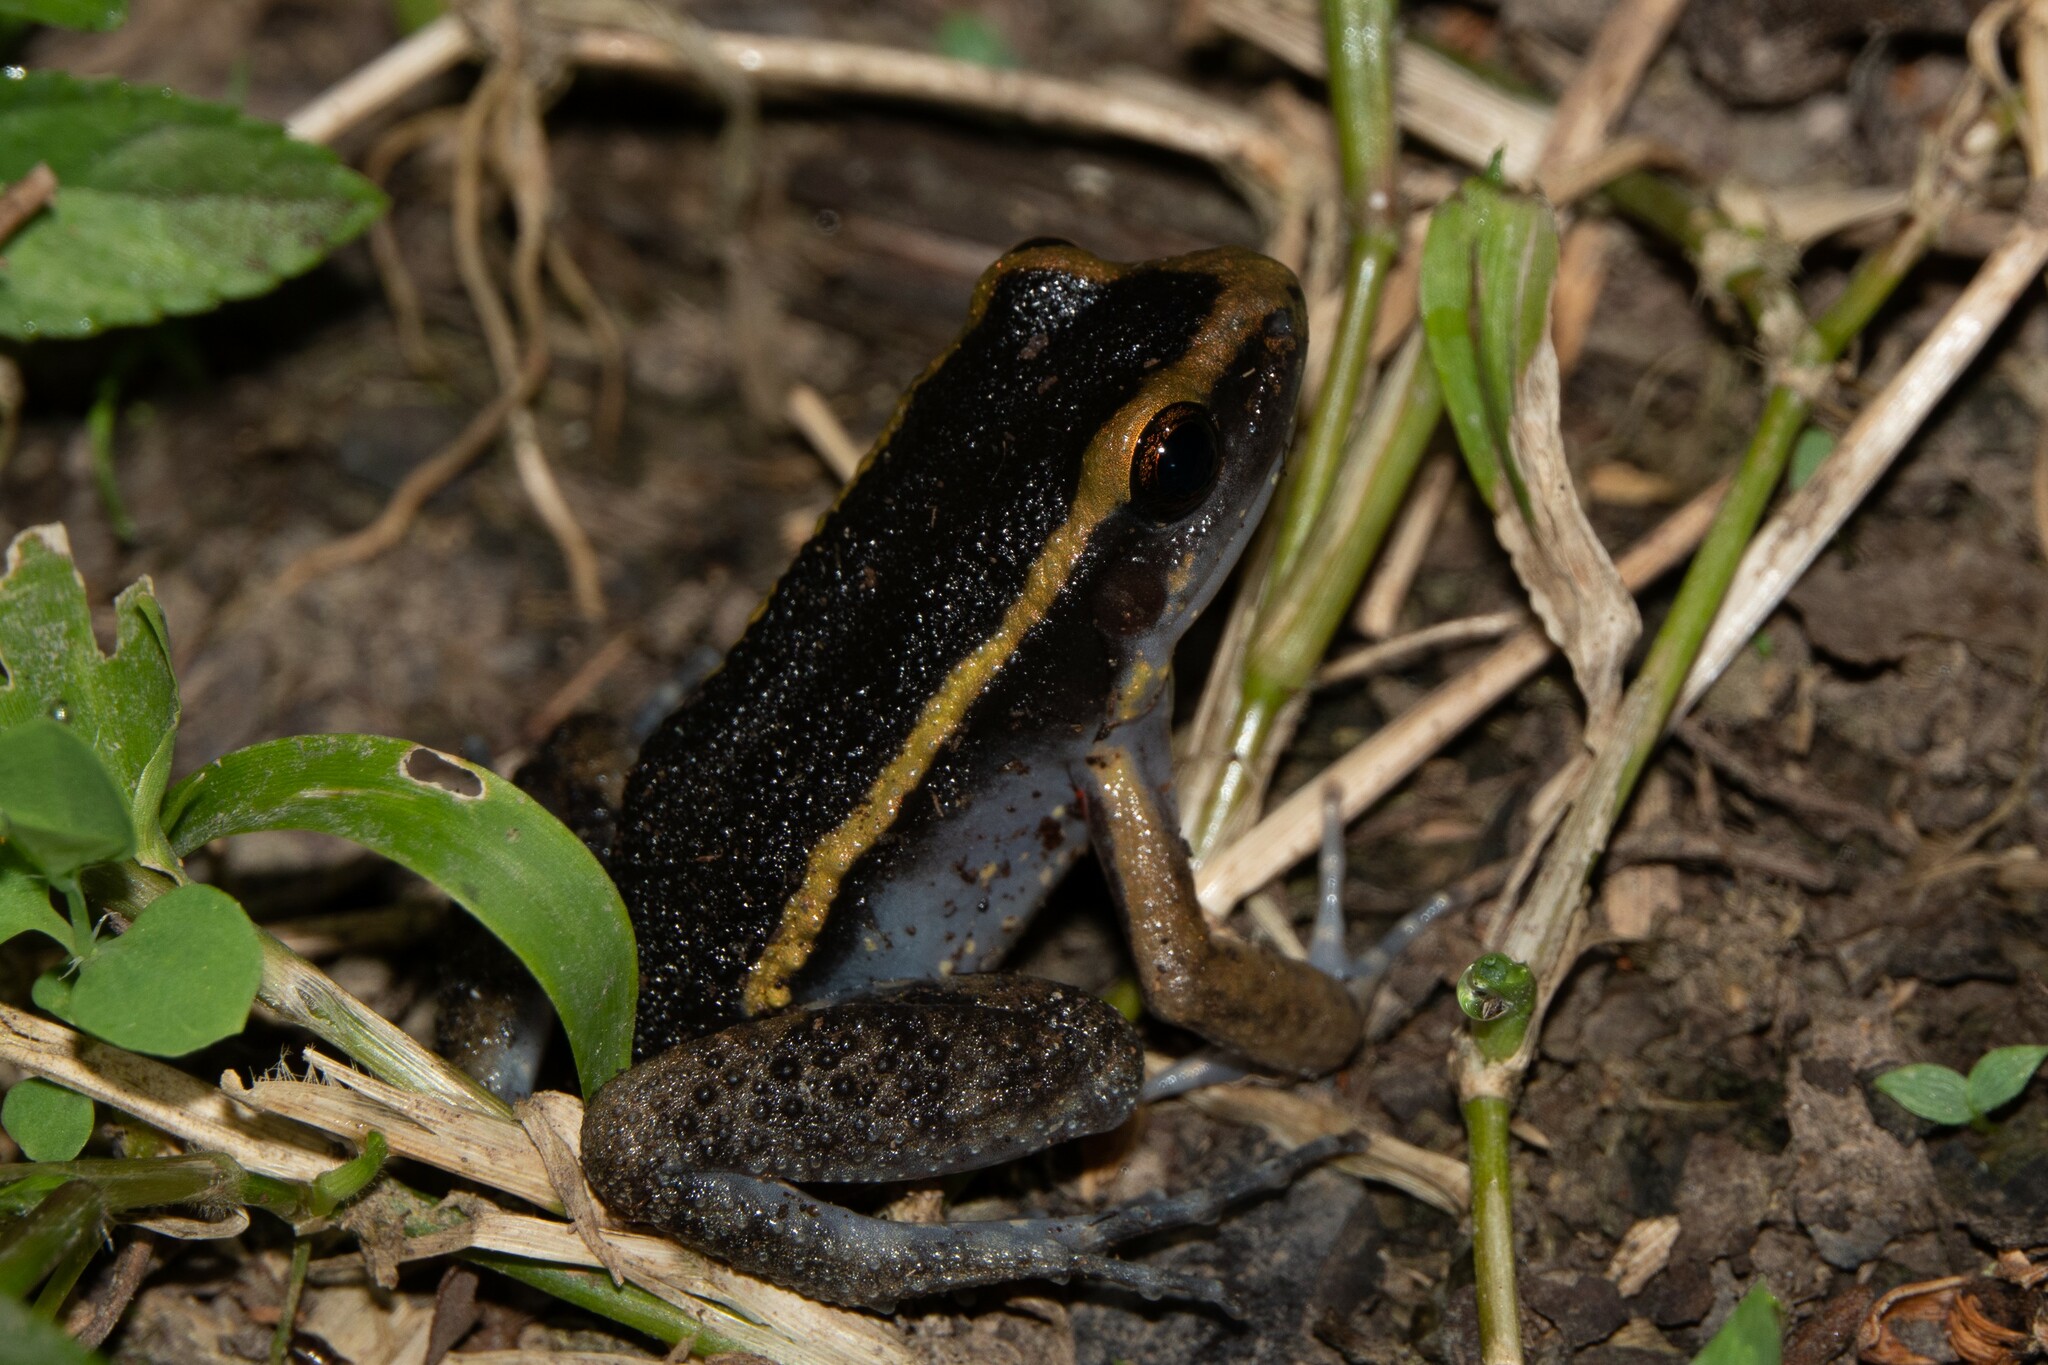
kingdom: Animalia
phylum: Chordata
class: Amphibia
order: Anura
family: Leptodactylidae
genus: Lithodytes
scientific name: Lithodytes lineatus
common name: Gold-striped frog
